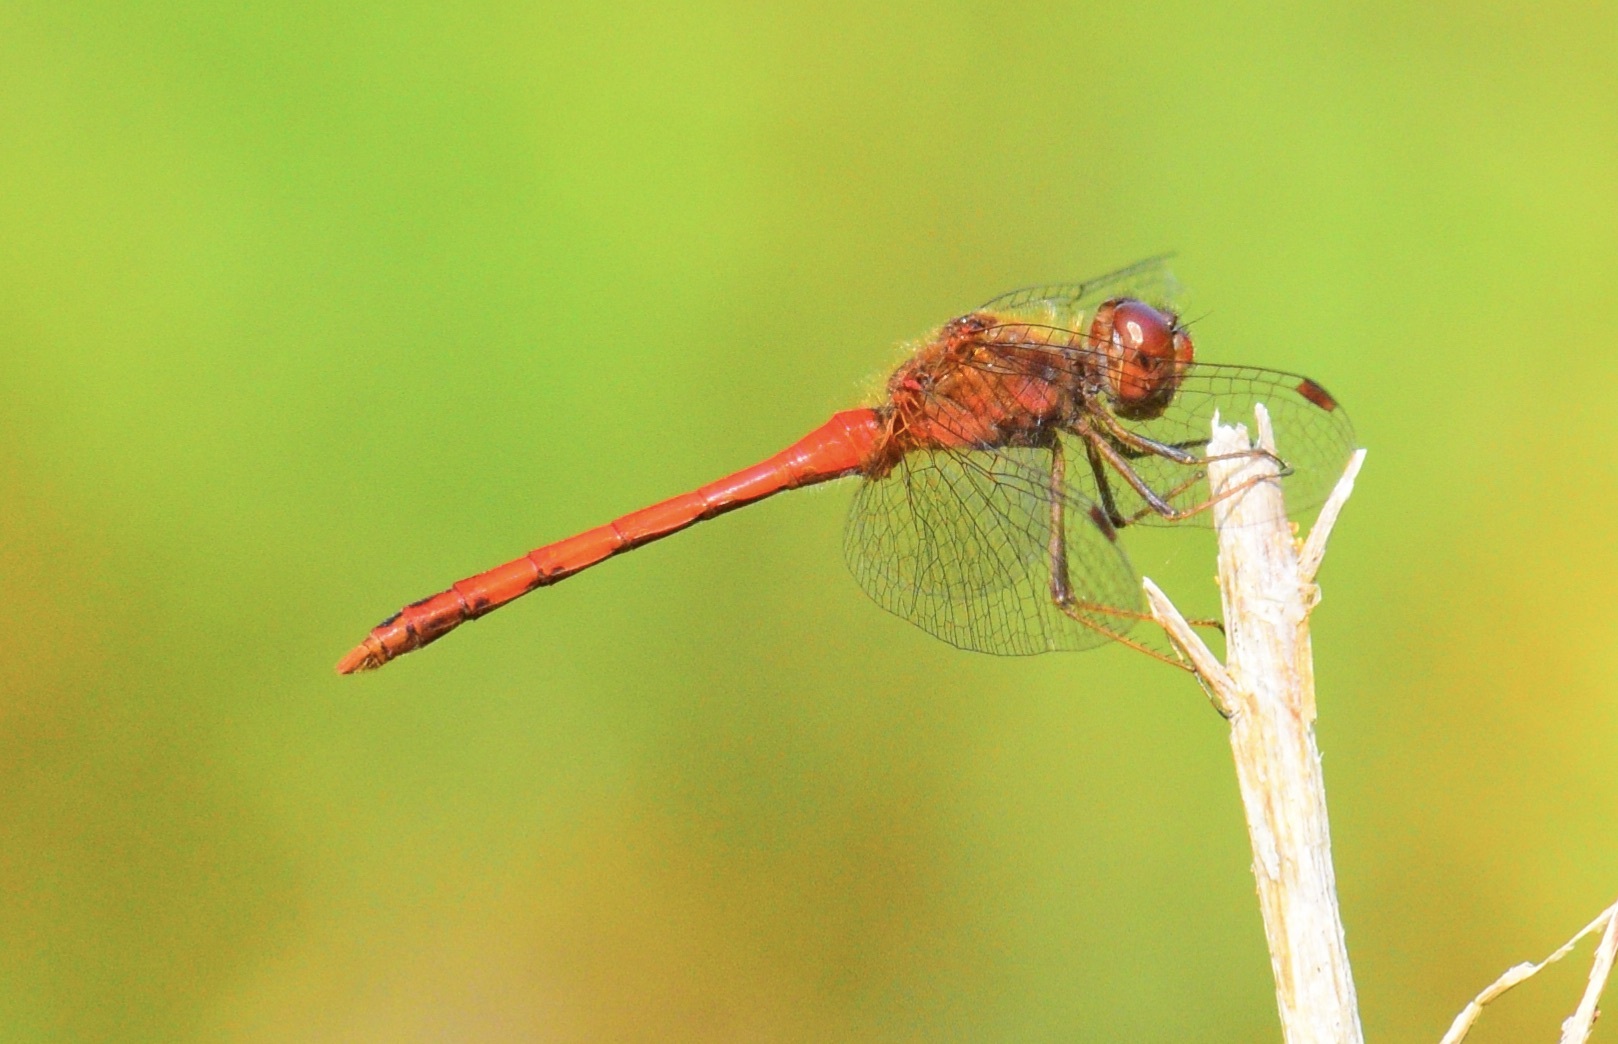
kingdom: Animalia
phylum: Arthropoda
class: Insecta
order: Odonata
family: Libellulidae
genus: Sympetrum
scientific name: Sympetrum vicinum
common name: Autumn meadowhawk
